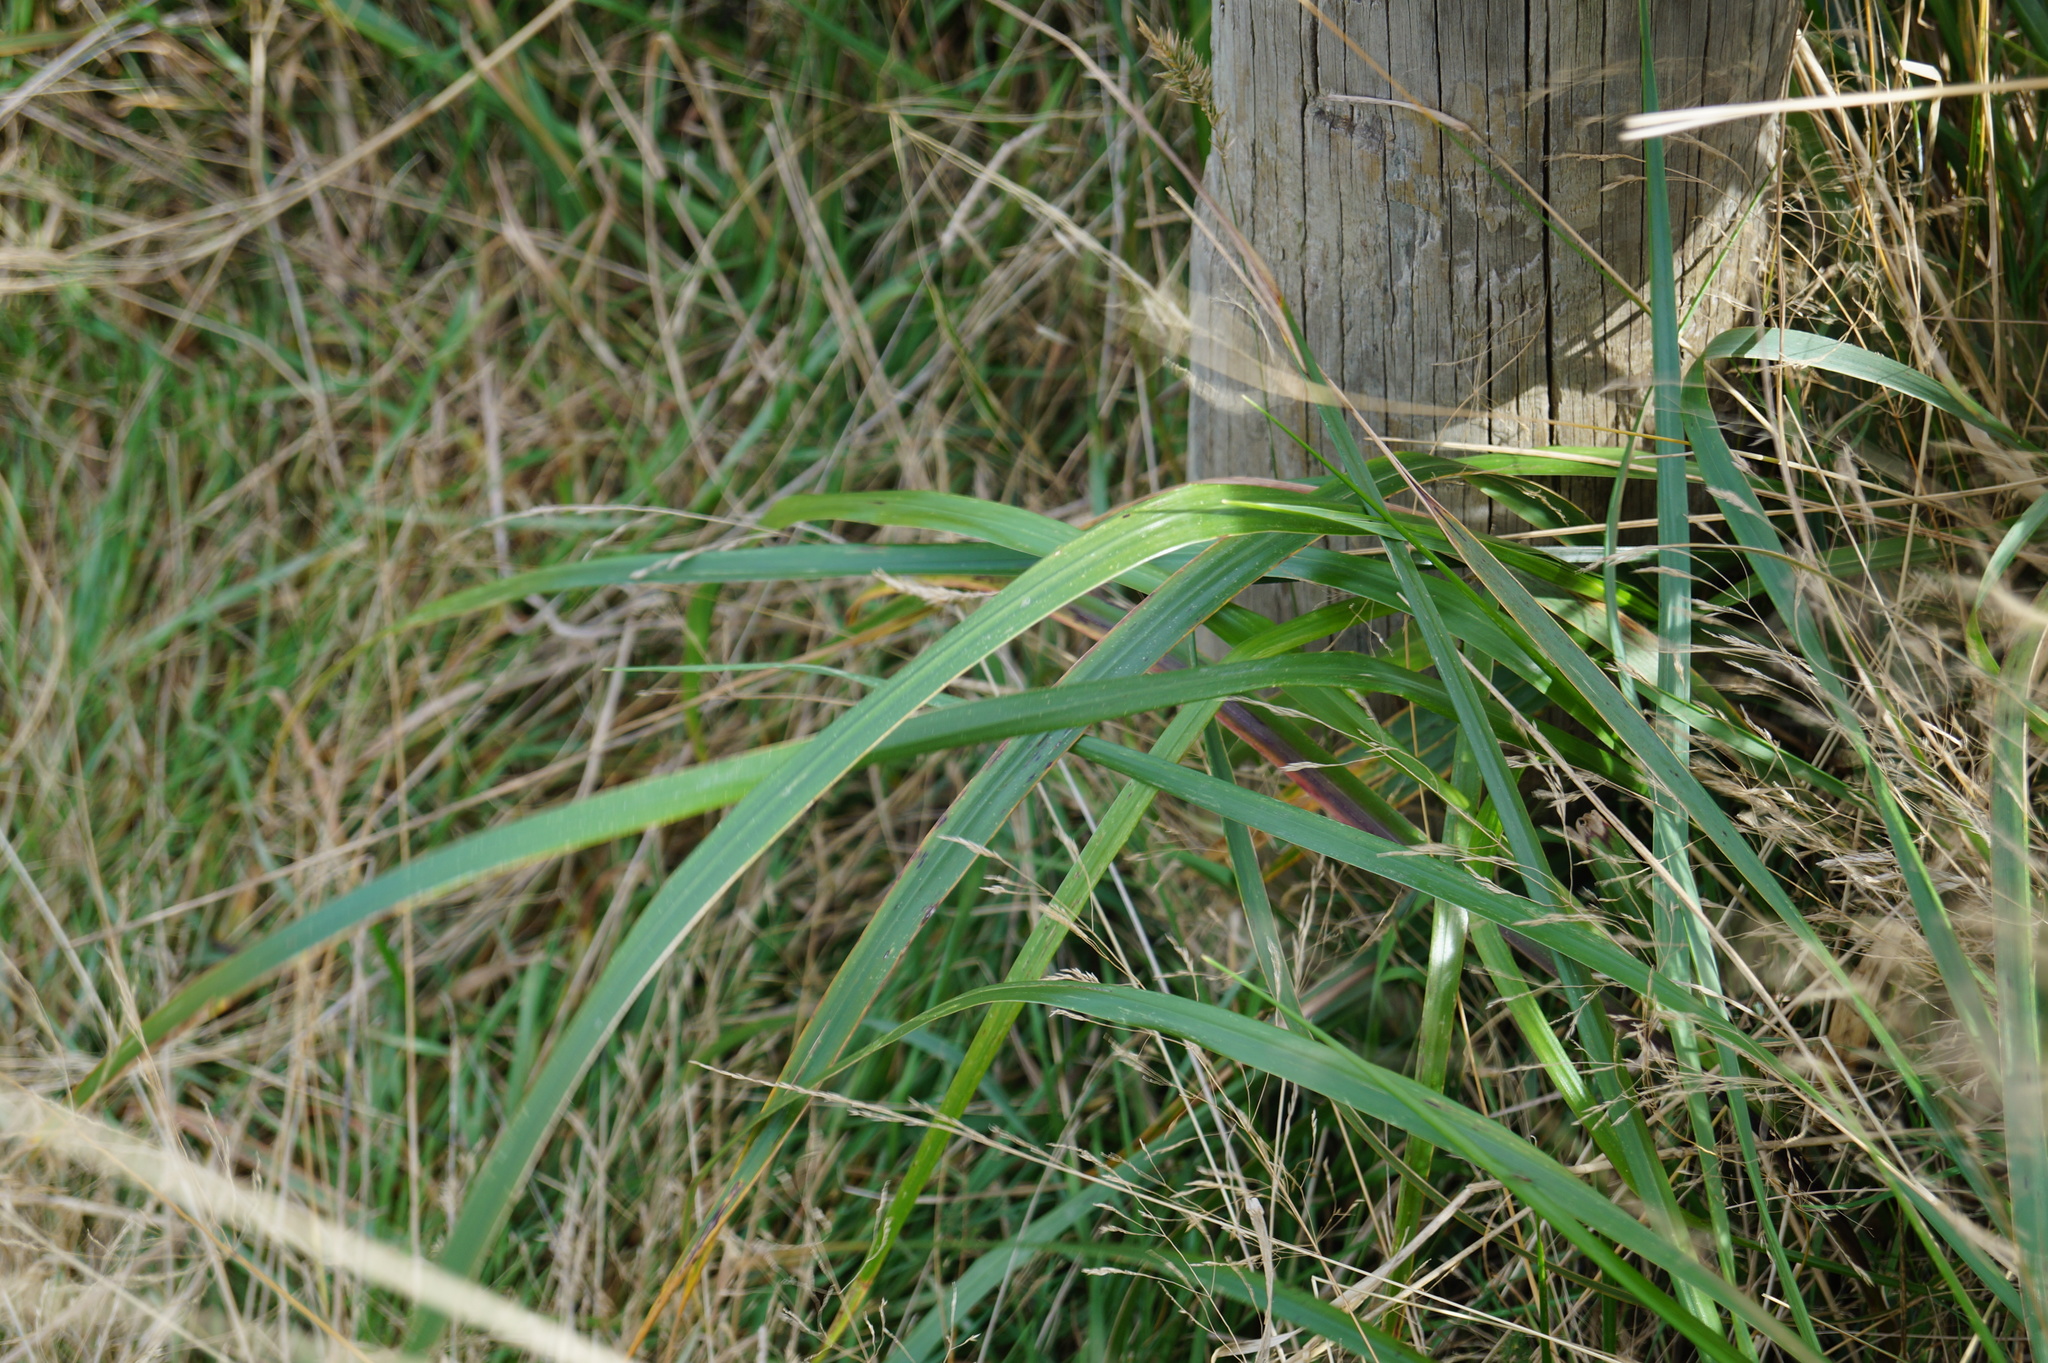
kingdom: Plantae
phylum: Tracheophyta
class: Liliopsida
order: Poales
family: Poaceae
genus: Glyceria
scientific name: Glyceria maxima
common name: Reed mannagrass
